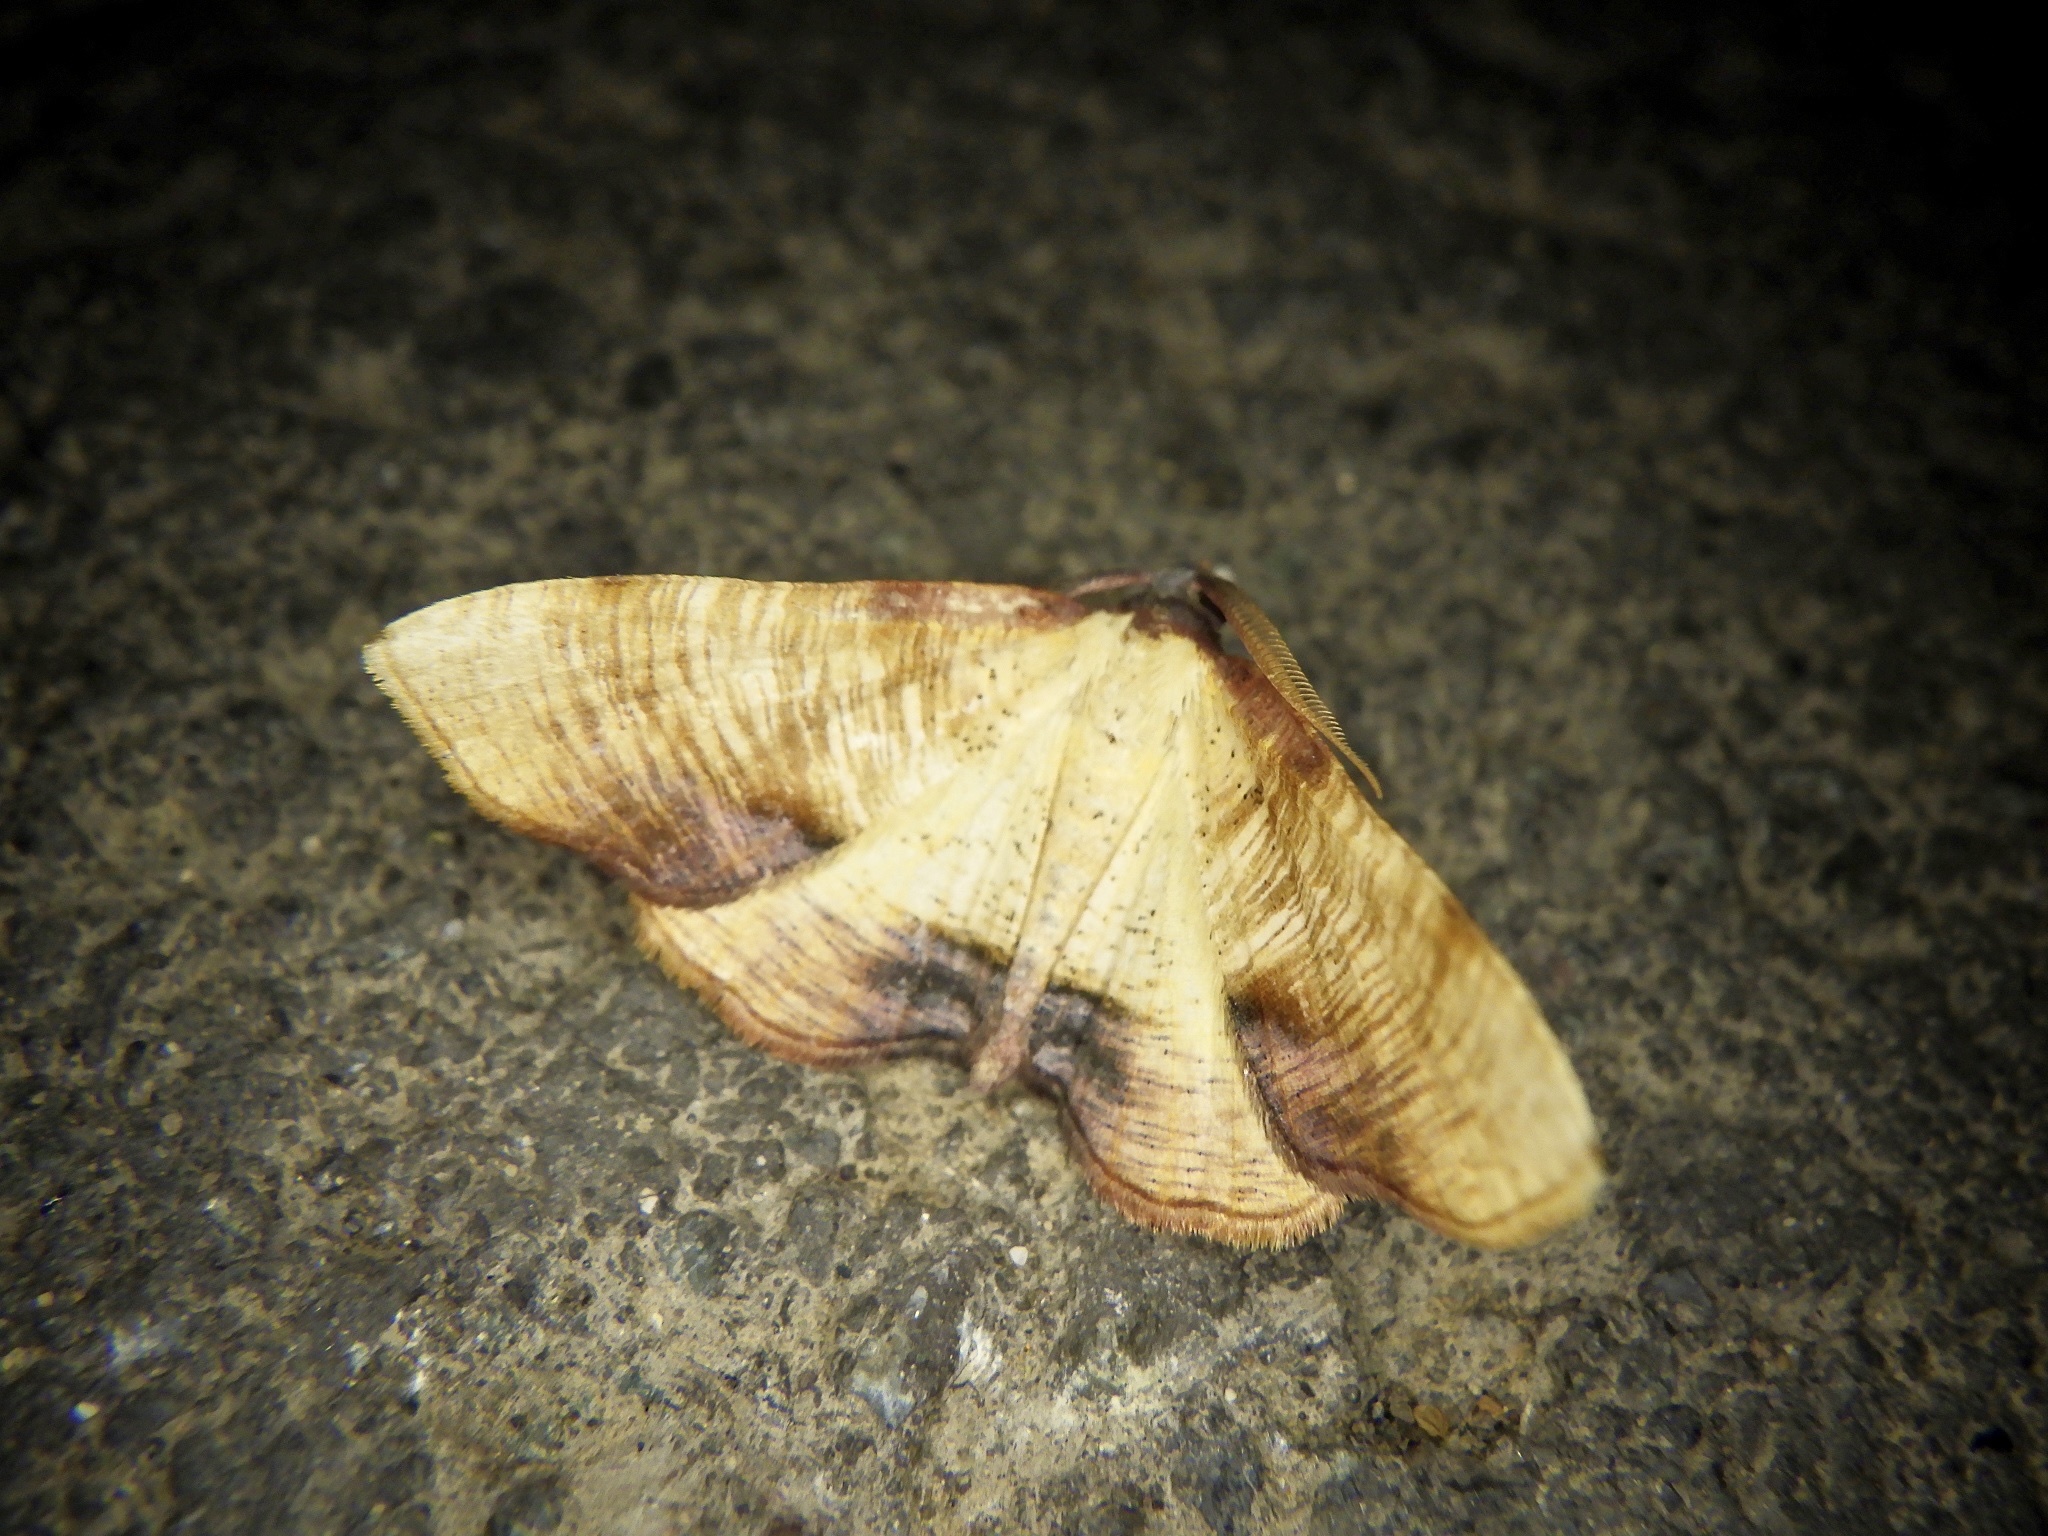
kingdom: Animalia
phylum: Arthropoda
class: Insecta
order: Lepidoptera
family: Geometridae
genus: Plagodis
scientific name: Plagodis dolabraria
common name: Scorched wing
